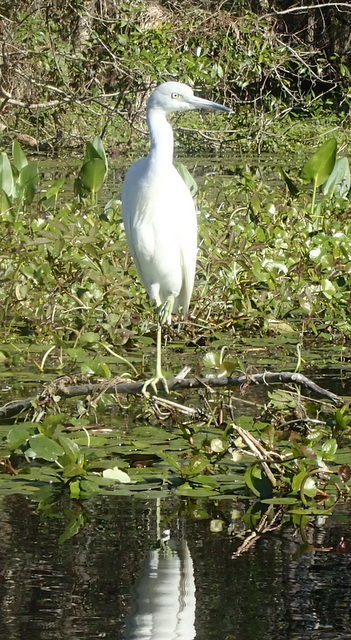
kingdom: Animalia
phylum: Chordata
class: Aves
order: Pelecaniformes
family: Ardeidae
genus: Egretta
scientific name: Egretta caerulea
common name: Little blue heron
